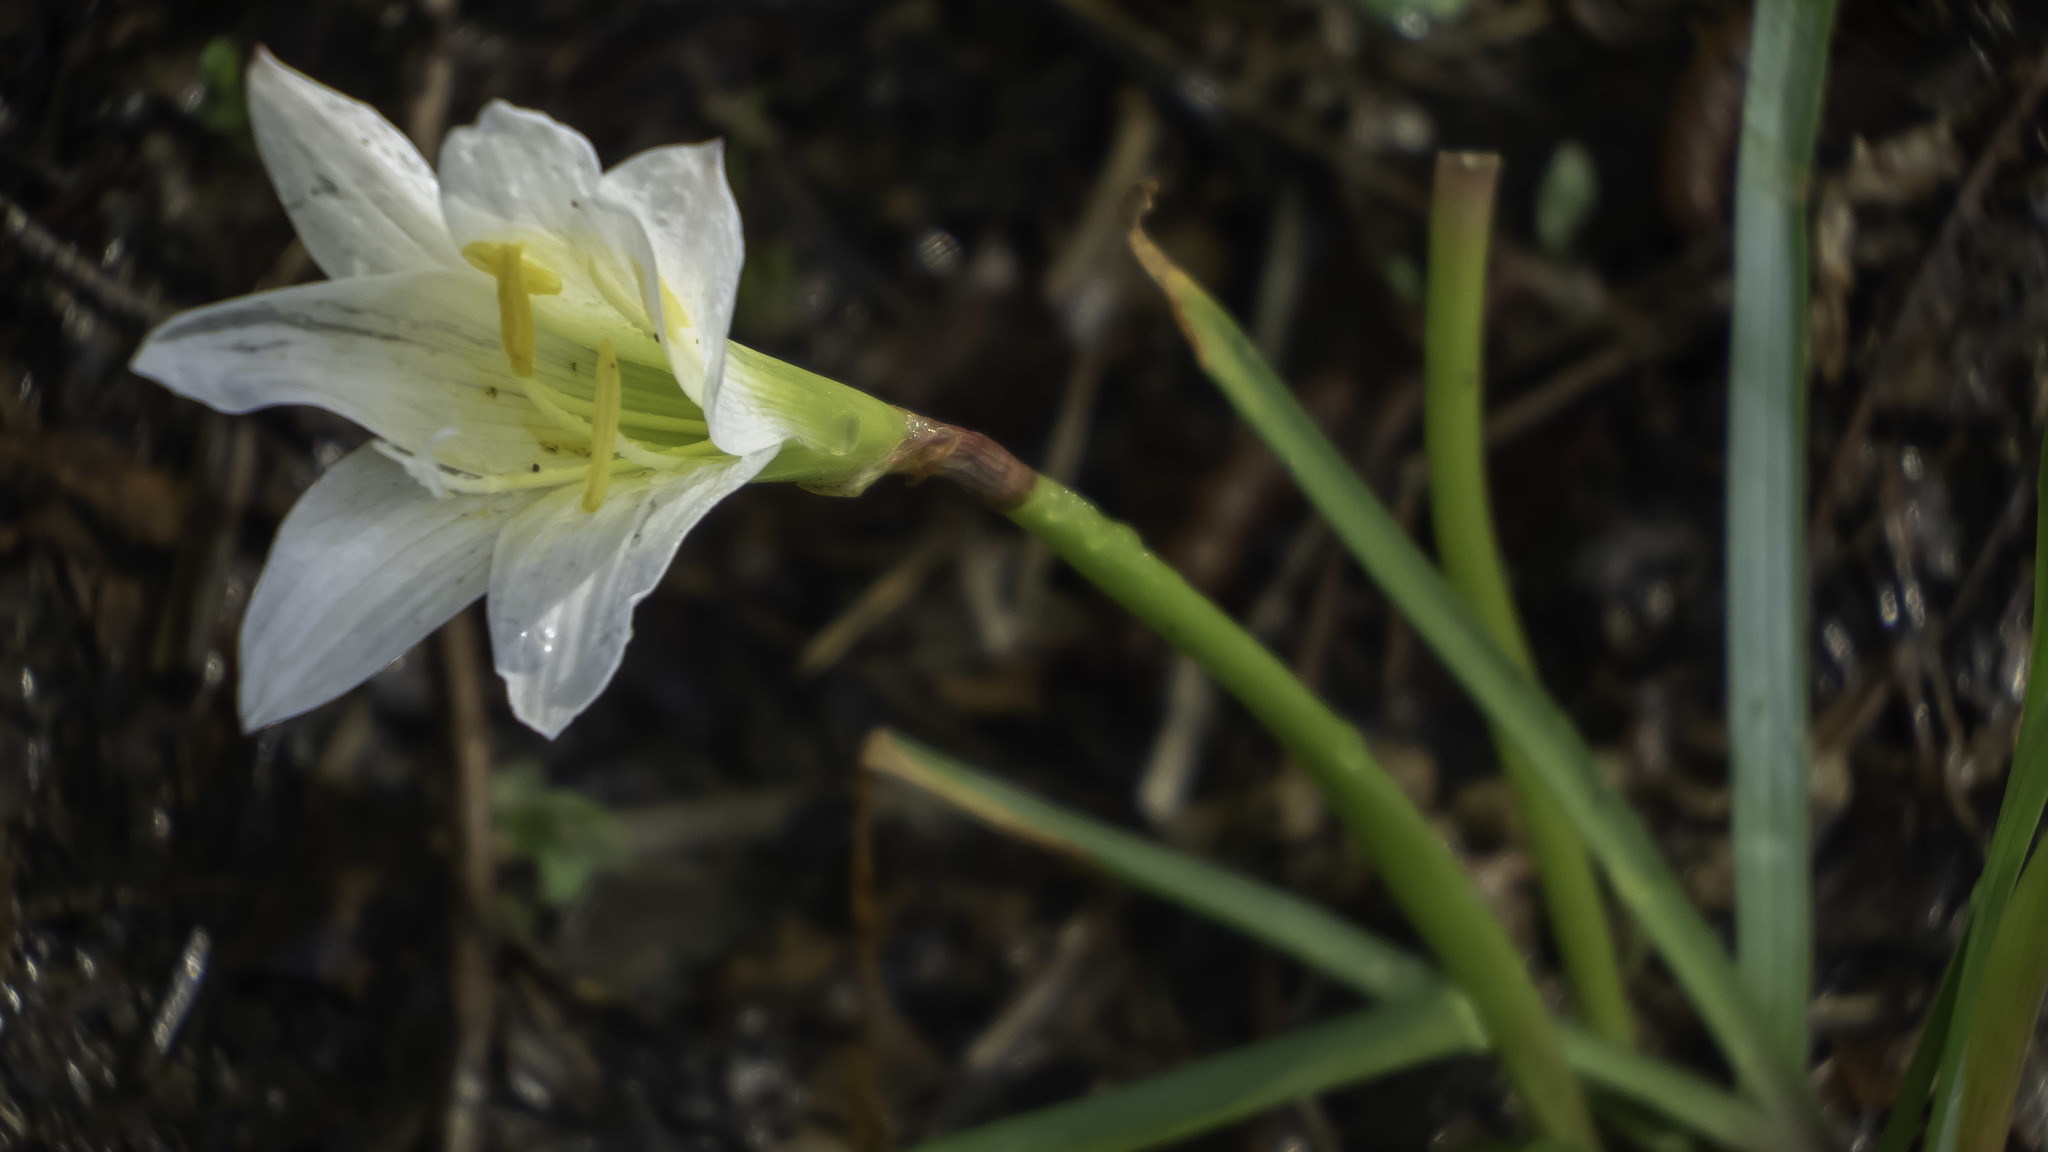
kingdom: Plantae
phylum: Tracheophyta
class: Liliopsida
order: Asparagales
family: Amaryllidaceae
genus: Zephyranthes
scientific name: Zephyranthes atamasco
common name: Atamasco lily
